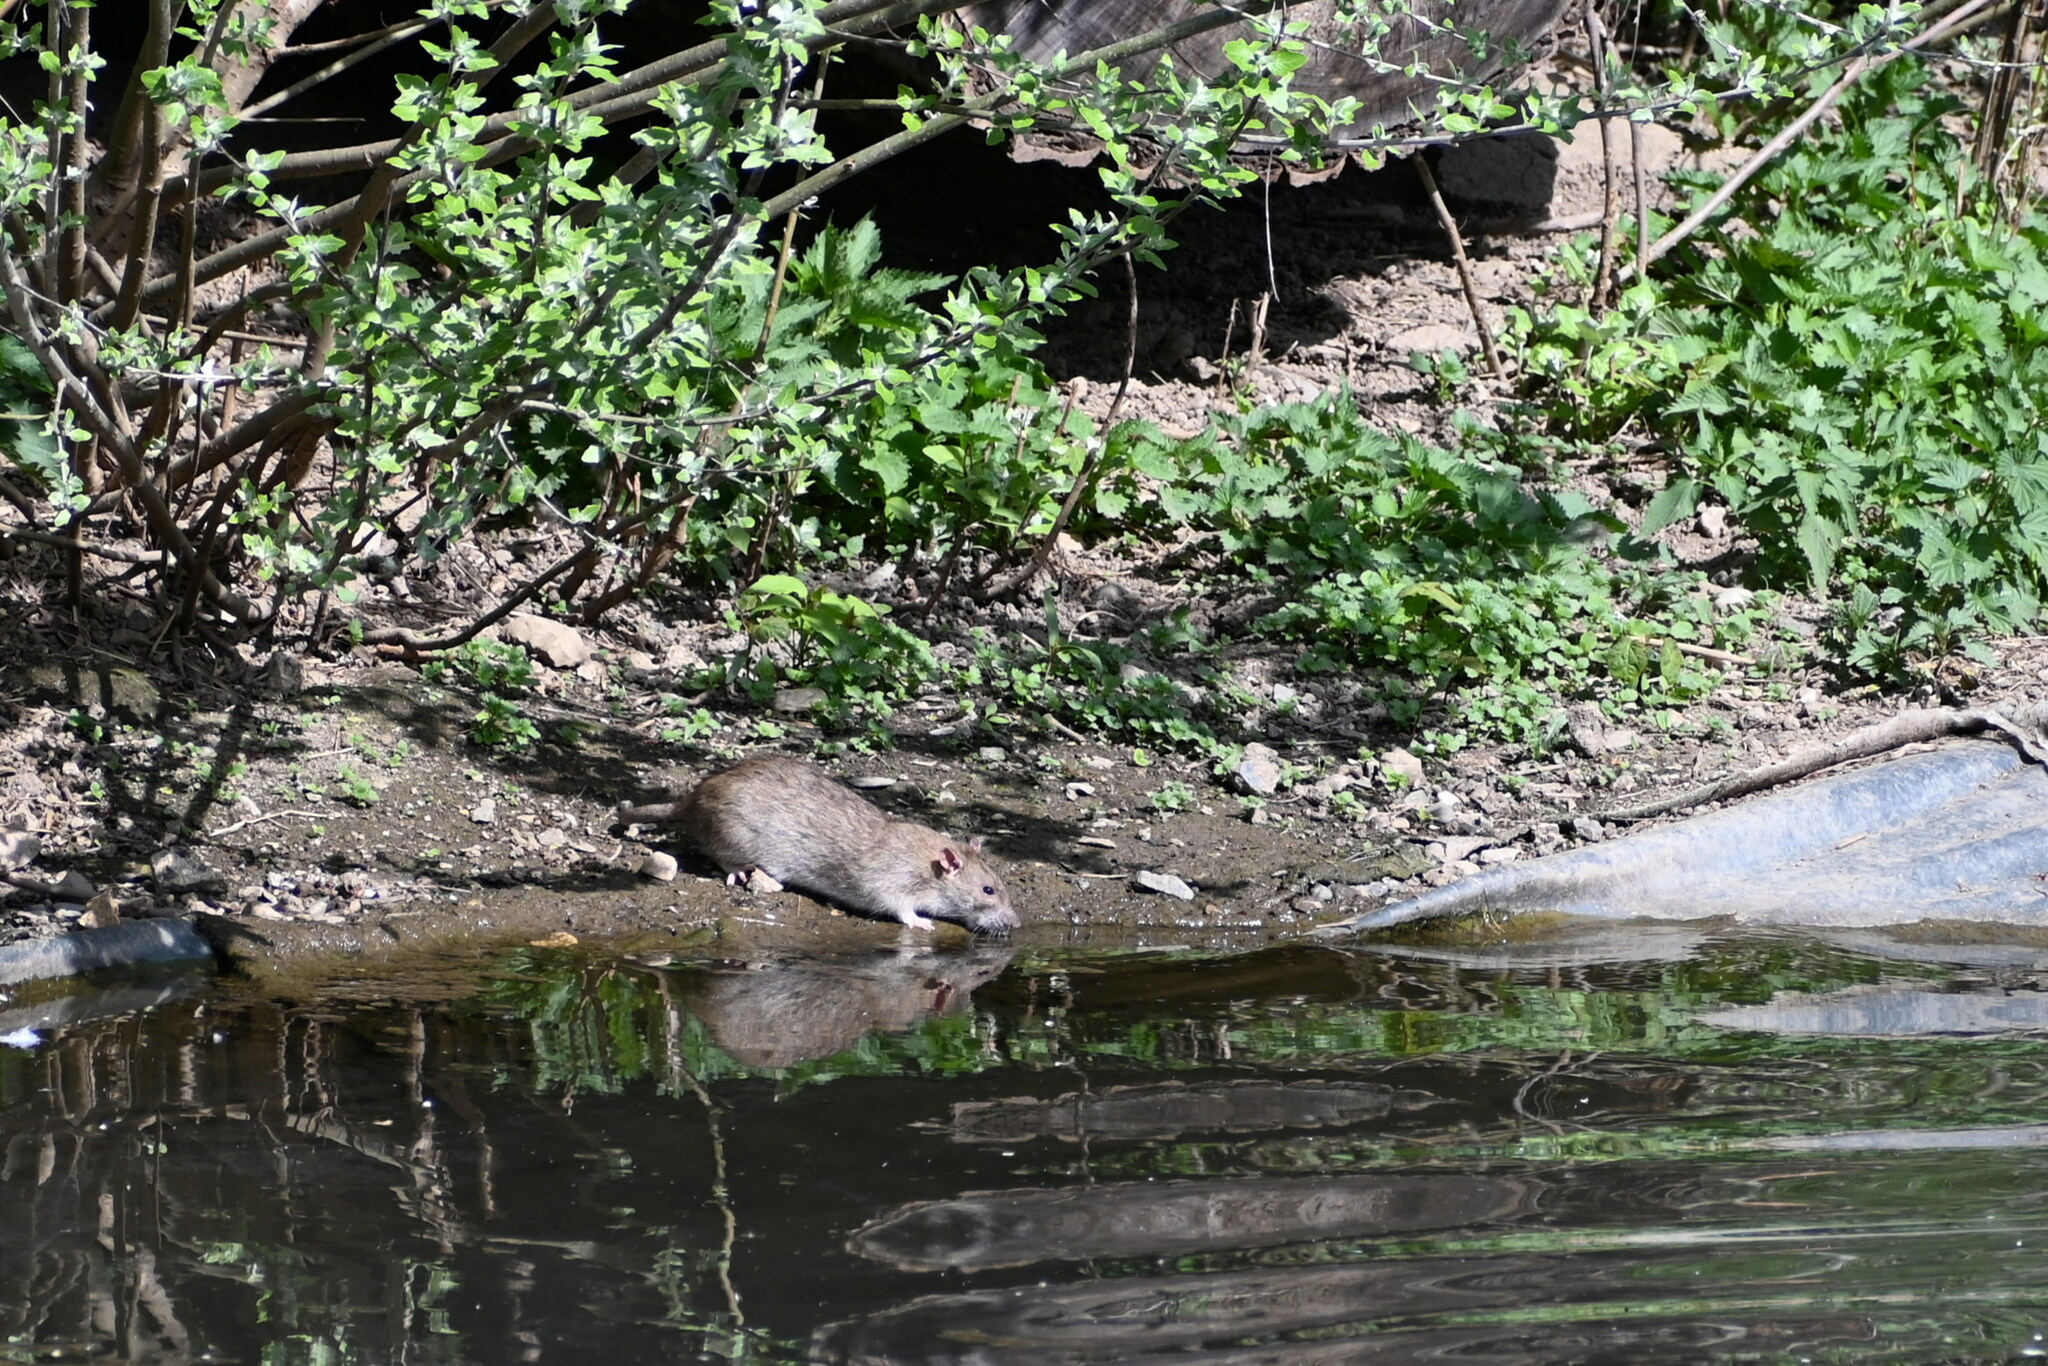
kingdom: Animalia
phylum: Chordata
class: Mammalia
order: Rodentia
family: Muridae
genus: Rattus
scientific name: Rattus norvegicus
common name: Brown rat
